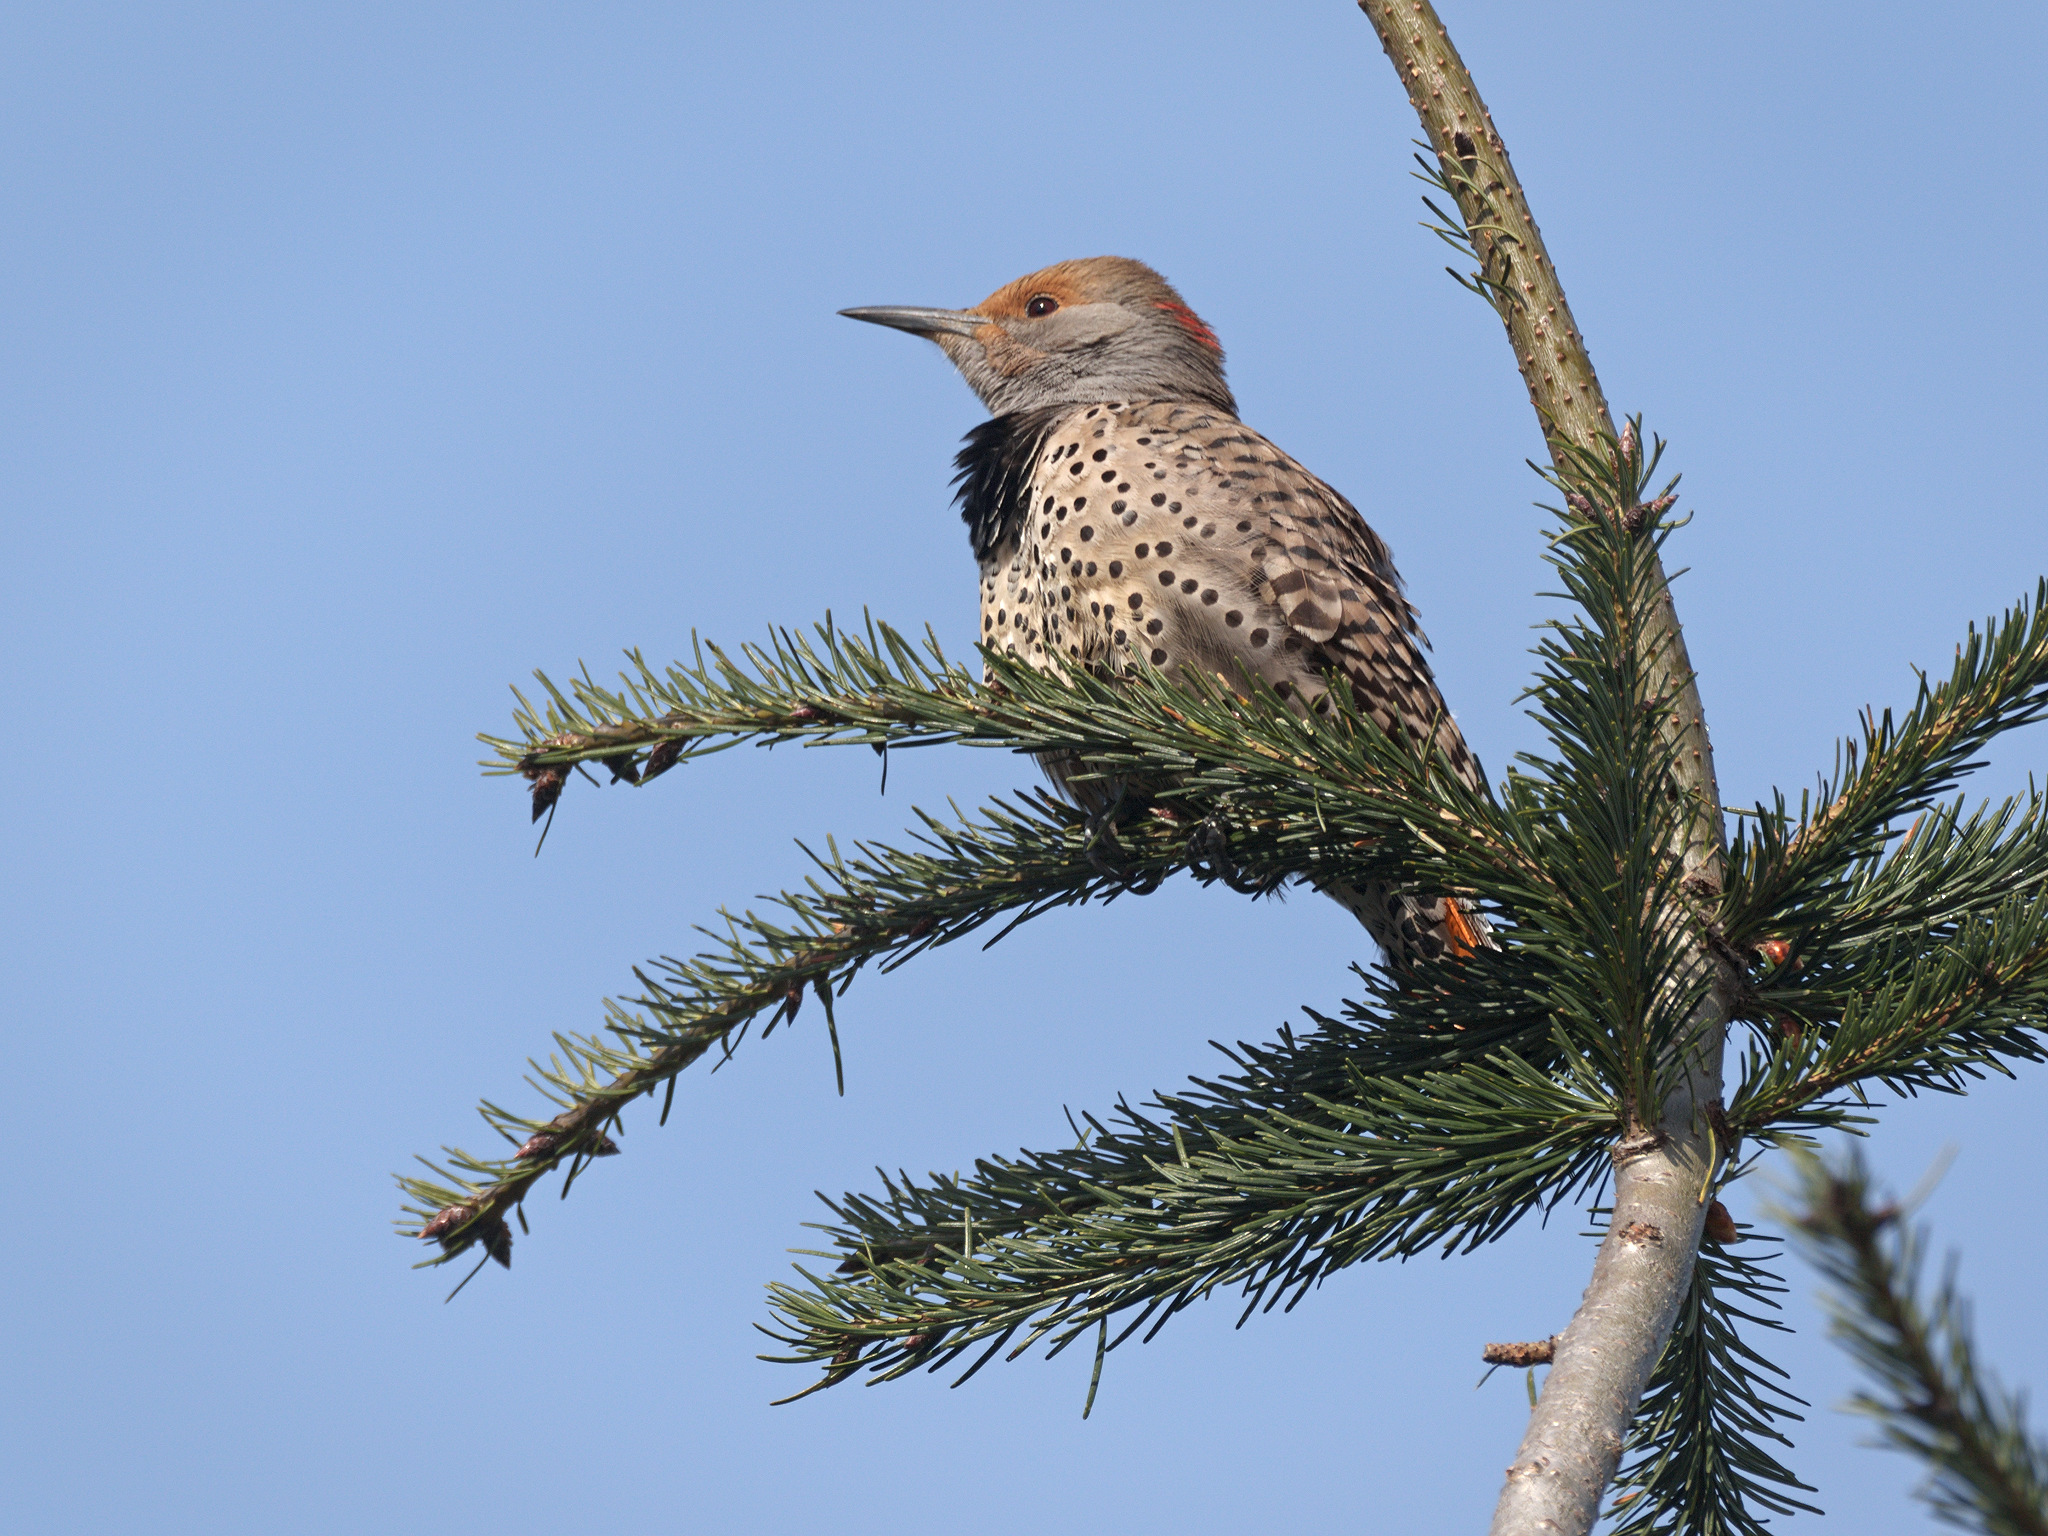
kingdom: Animalia
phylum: Chordata
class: Aves
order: Piciformes
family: Picidae
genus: Colaptes
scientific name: Colaptes
